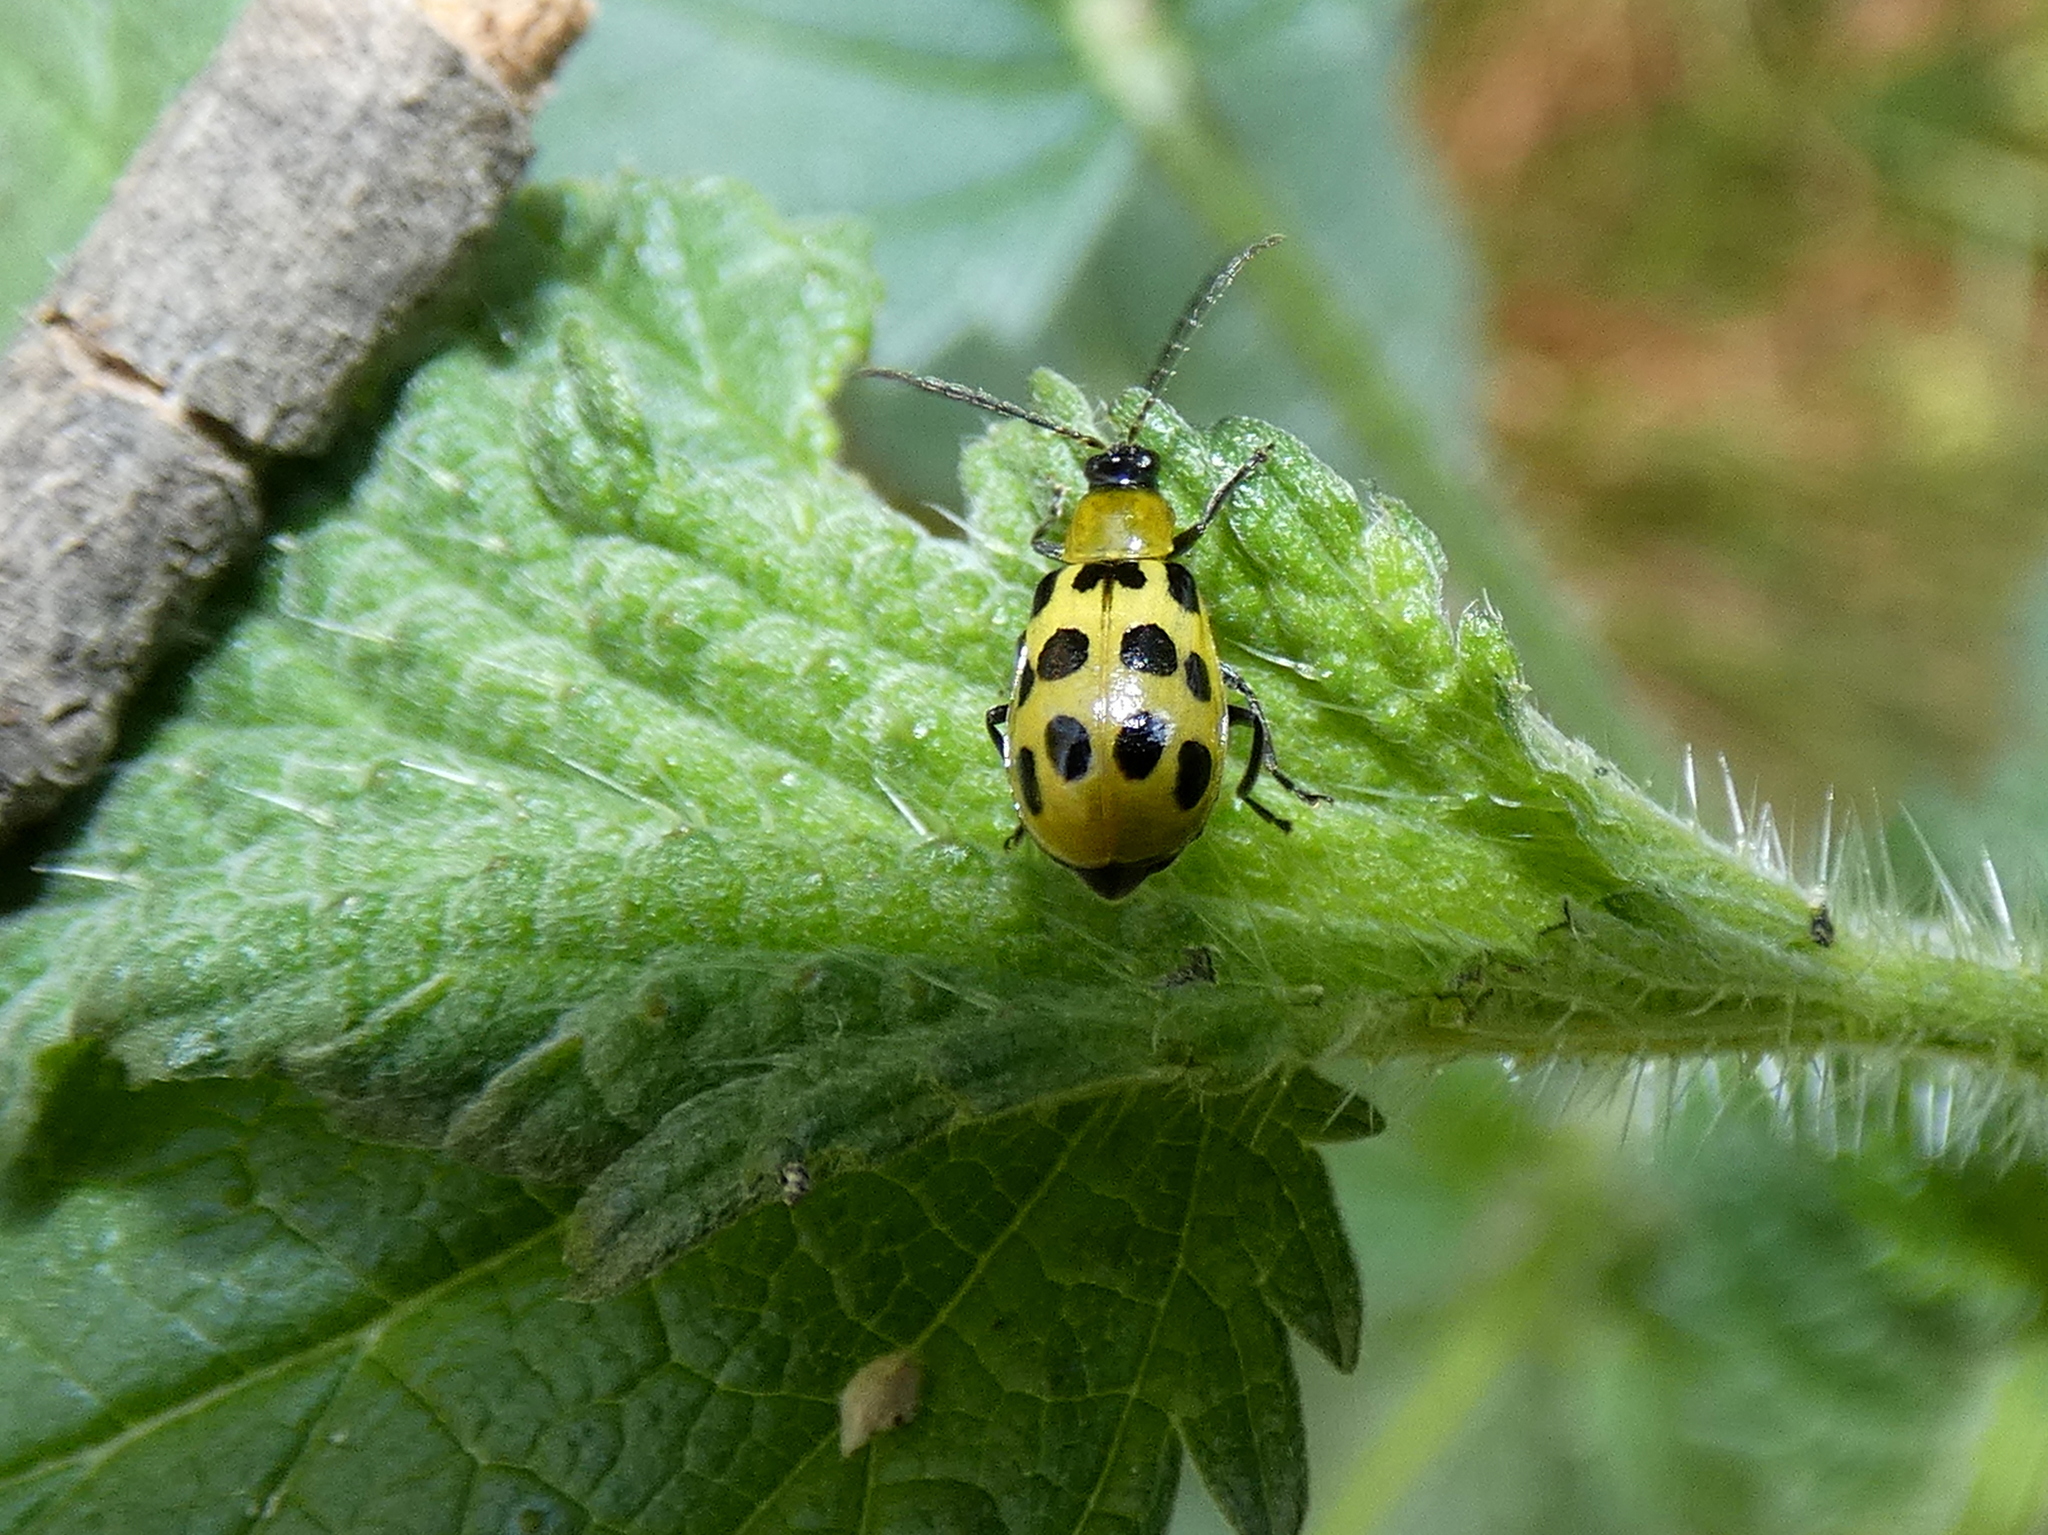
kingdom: Animalia
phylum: Arthropoda
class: Insecta
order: Coleoptera
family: Chrysomelidae
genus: Diabrotica
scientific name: Diabrotica undecimpunctata
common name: Spotted cucumber beetle
